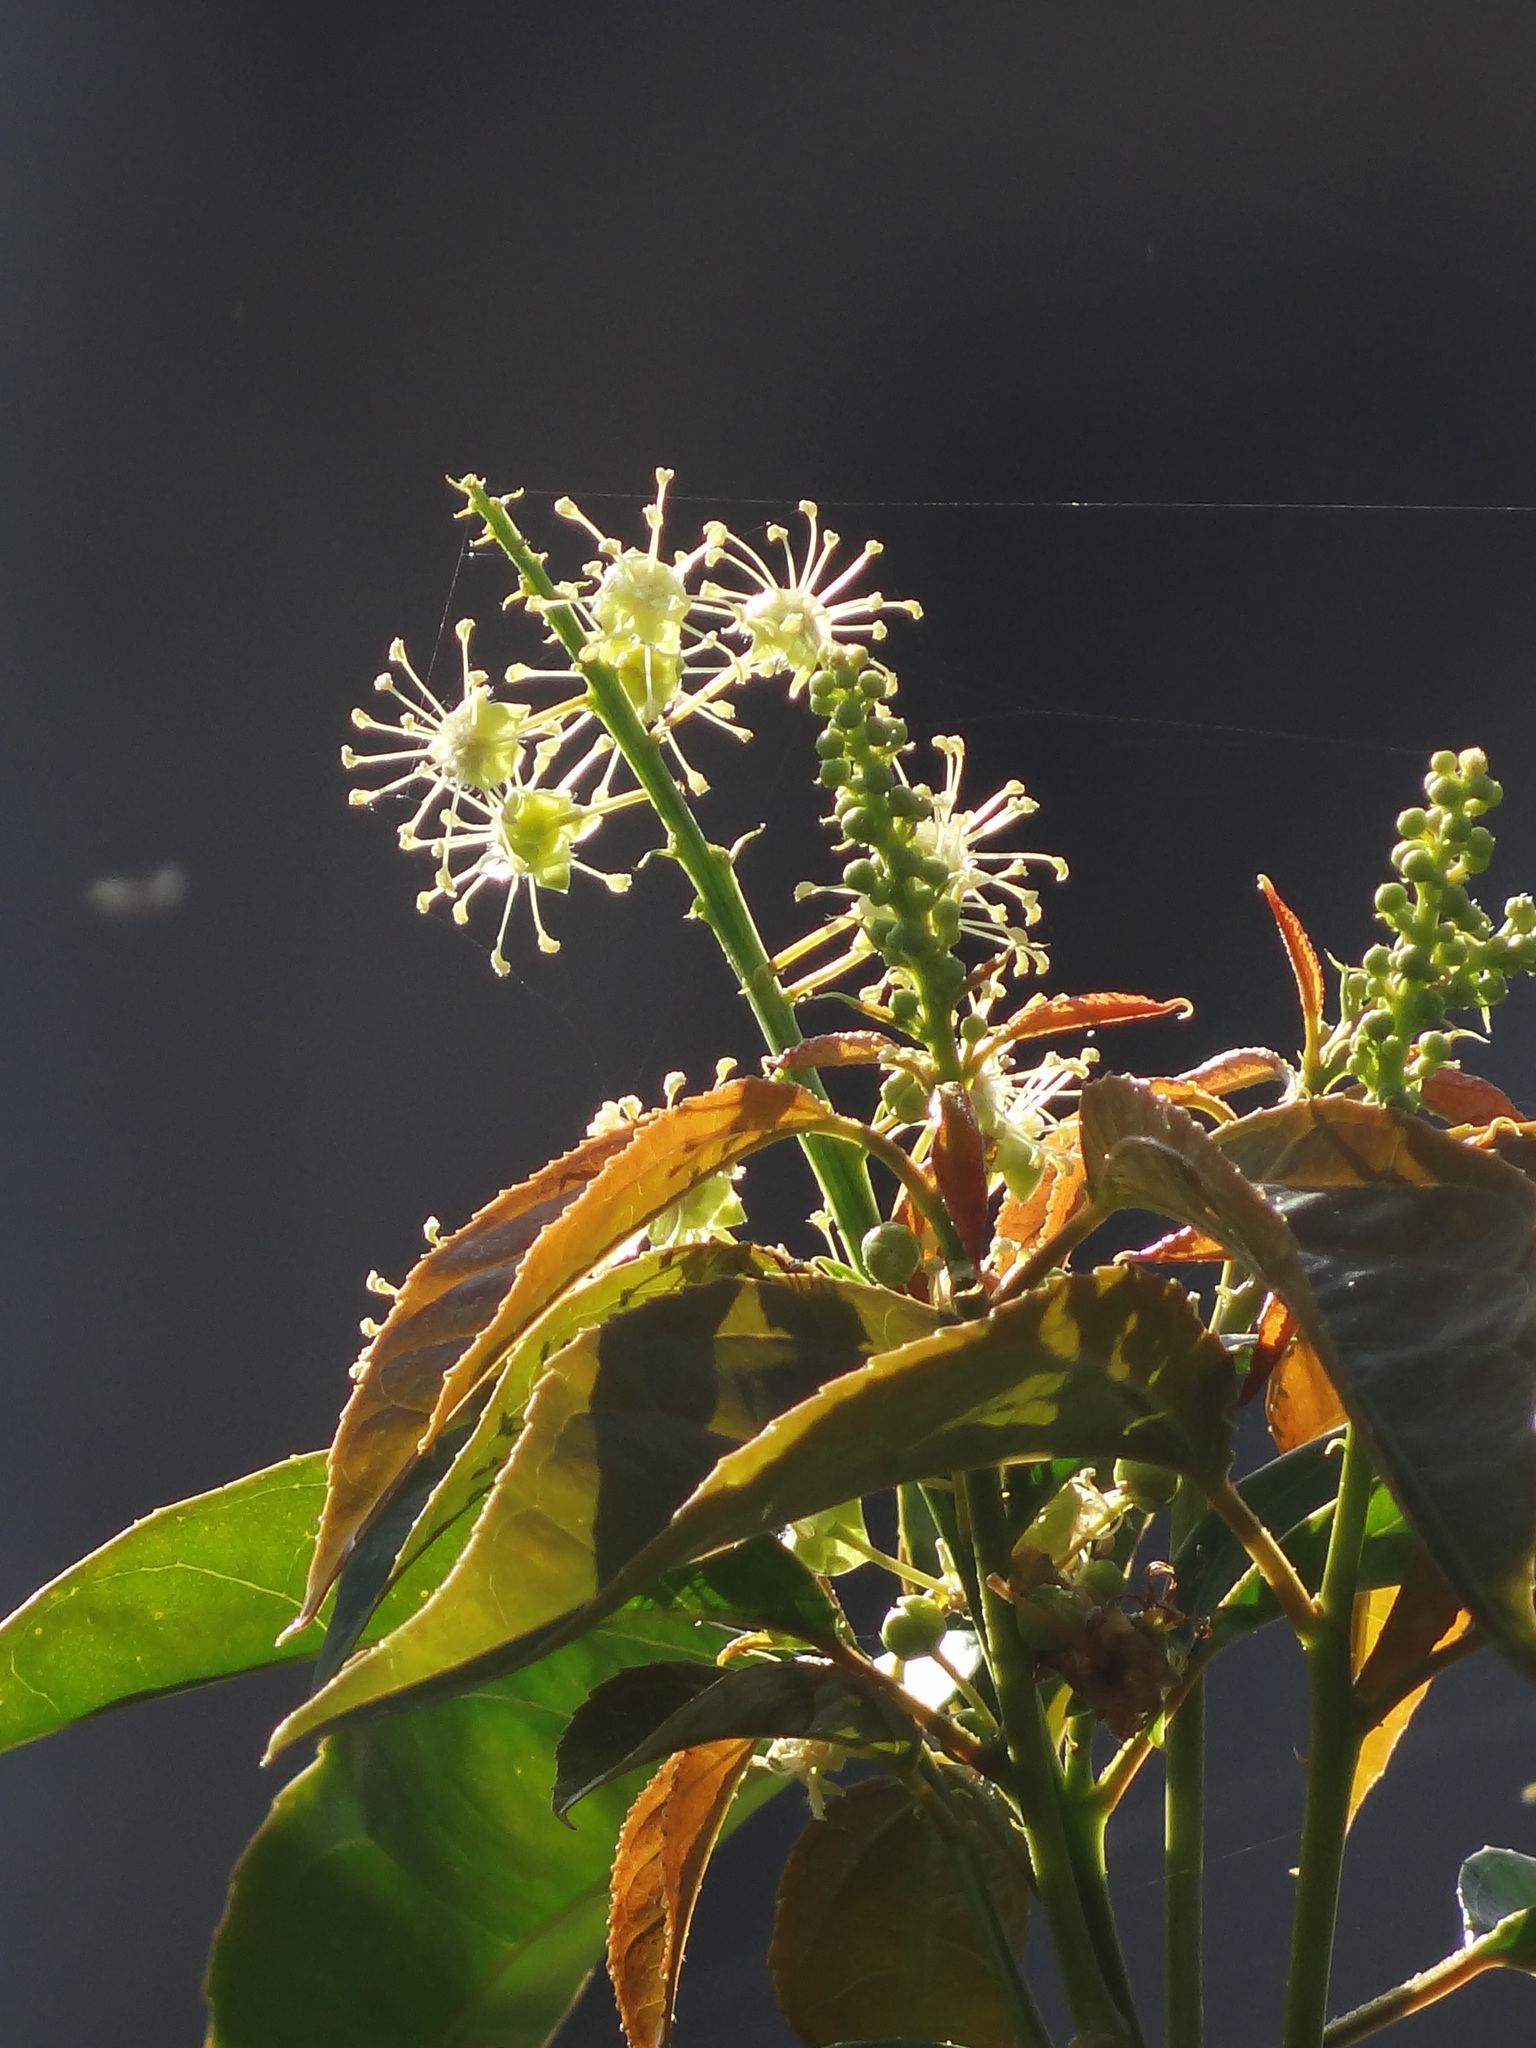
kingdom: Plantae
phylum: Tracheophyta
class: Magnoliopsida
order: Malpighiales
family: Euphorbiaceae
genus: Croton
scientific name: Croton tiglium
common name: Purging croton
